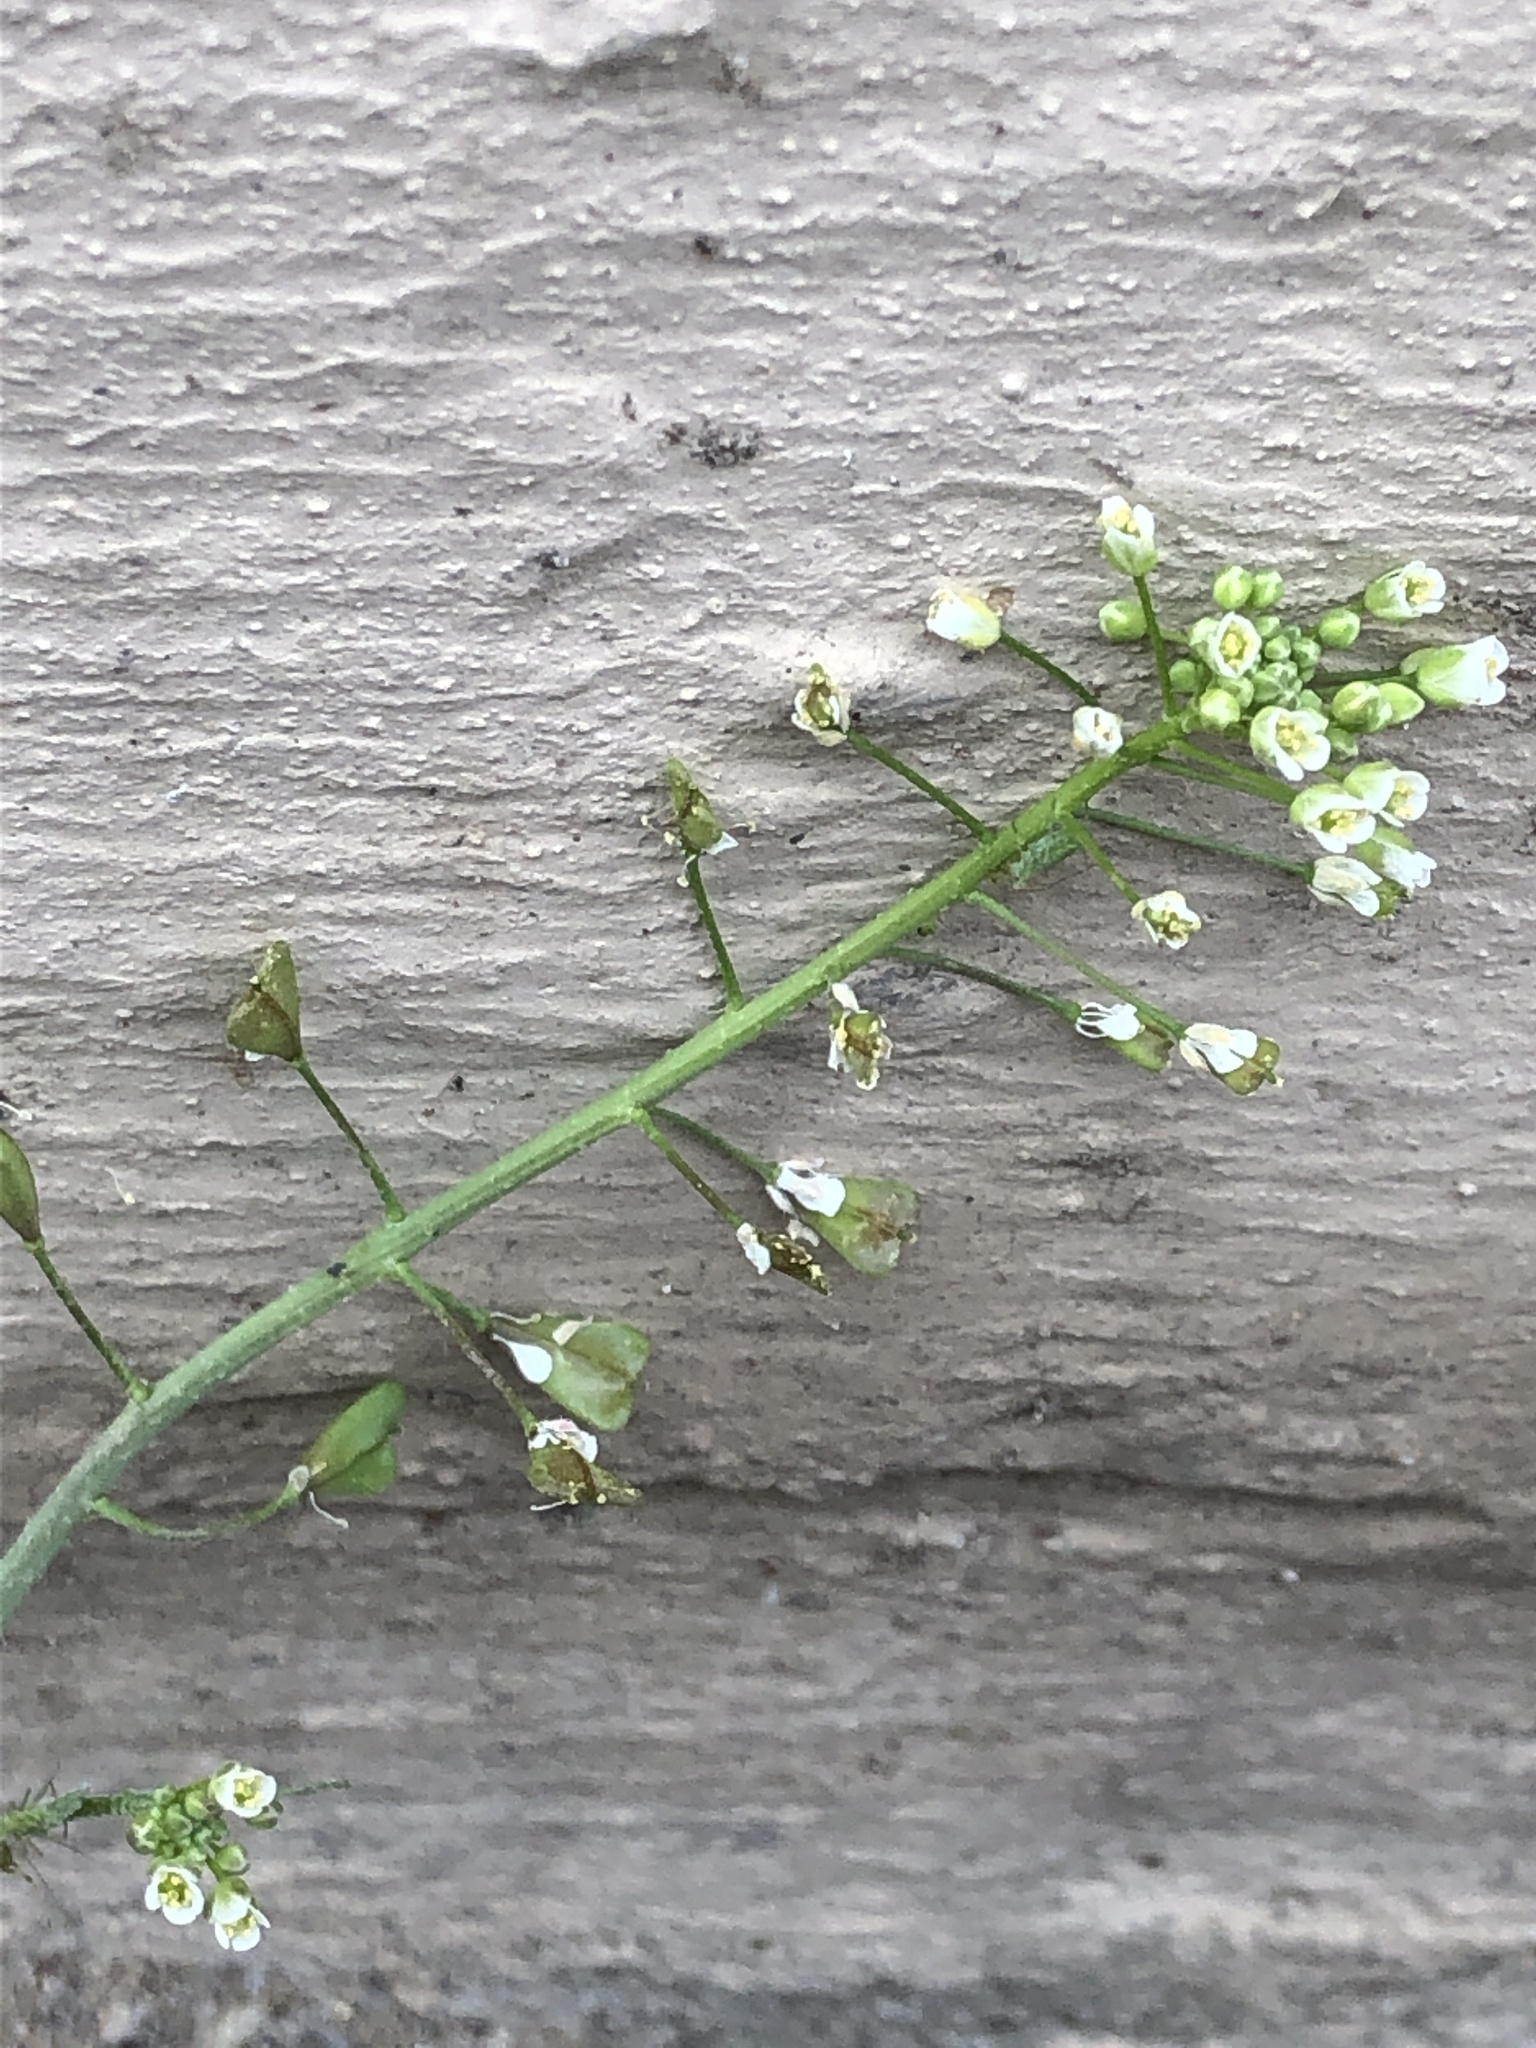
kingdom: Plantae
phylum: Tracheophyta
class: Magnoliopsida
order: Brassicales
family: Brassicaceae
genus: Capsella
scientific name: Capsella bursa-pastoris
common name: Shepherd's purse
